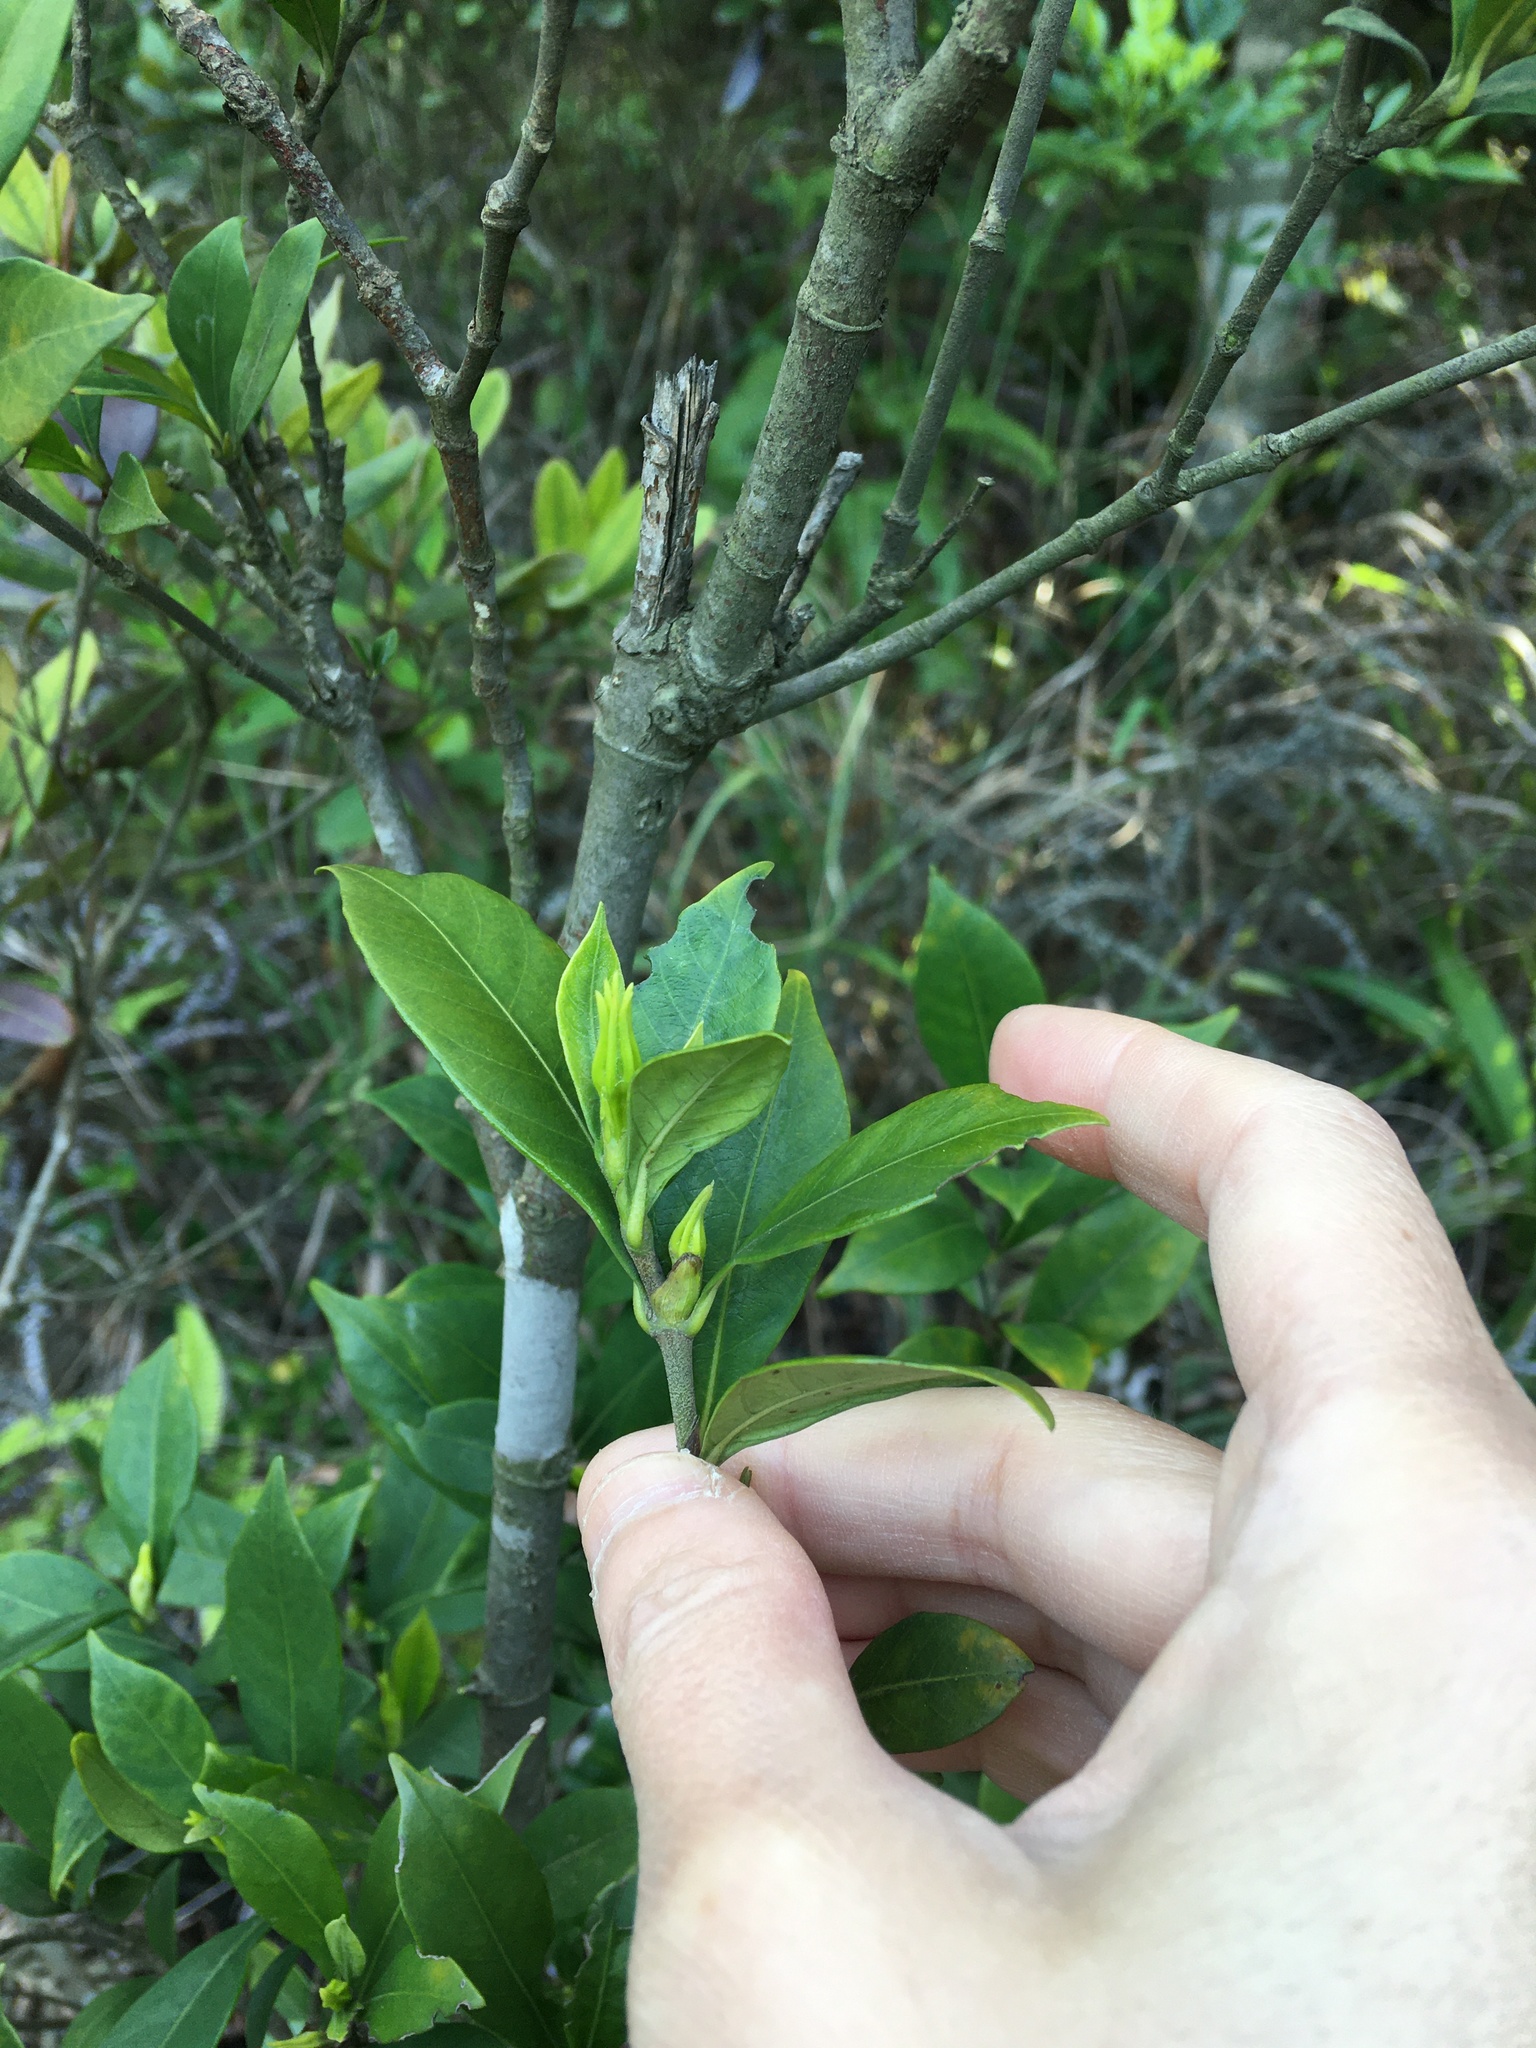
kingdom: Plantae
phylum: Tracheophyta
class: Magnoliopsida
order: Gentianales
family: Rubiaceae
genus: Gardenia
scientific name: Gardenia jasminoides
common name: Cape-jasmine
